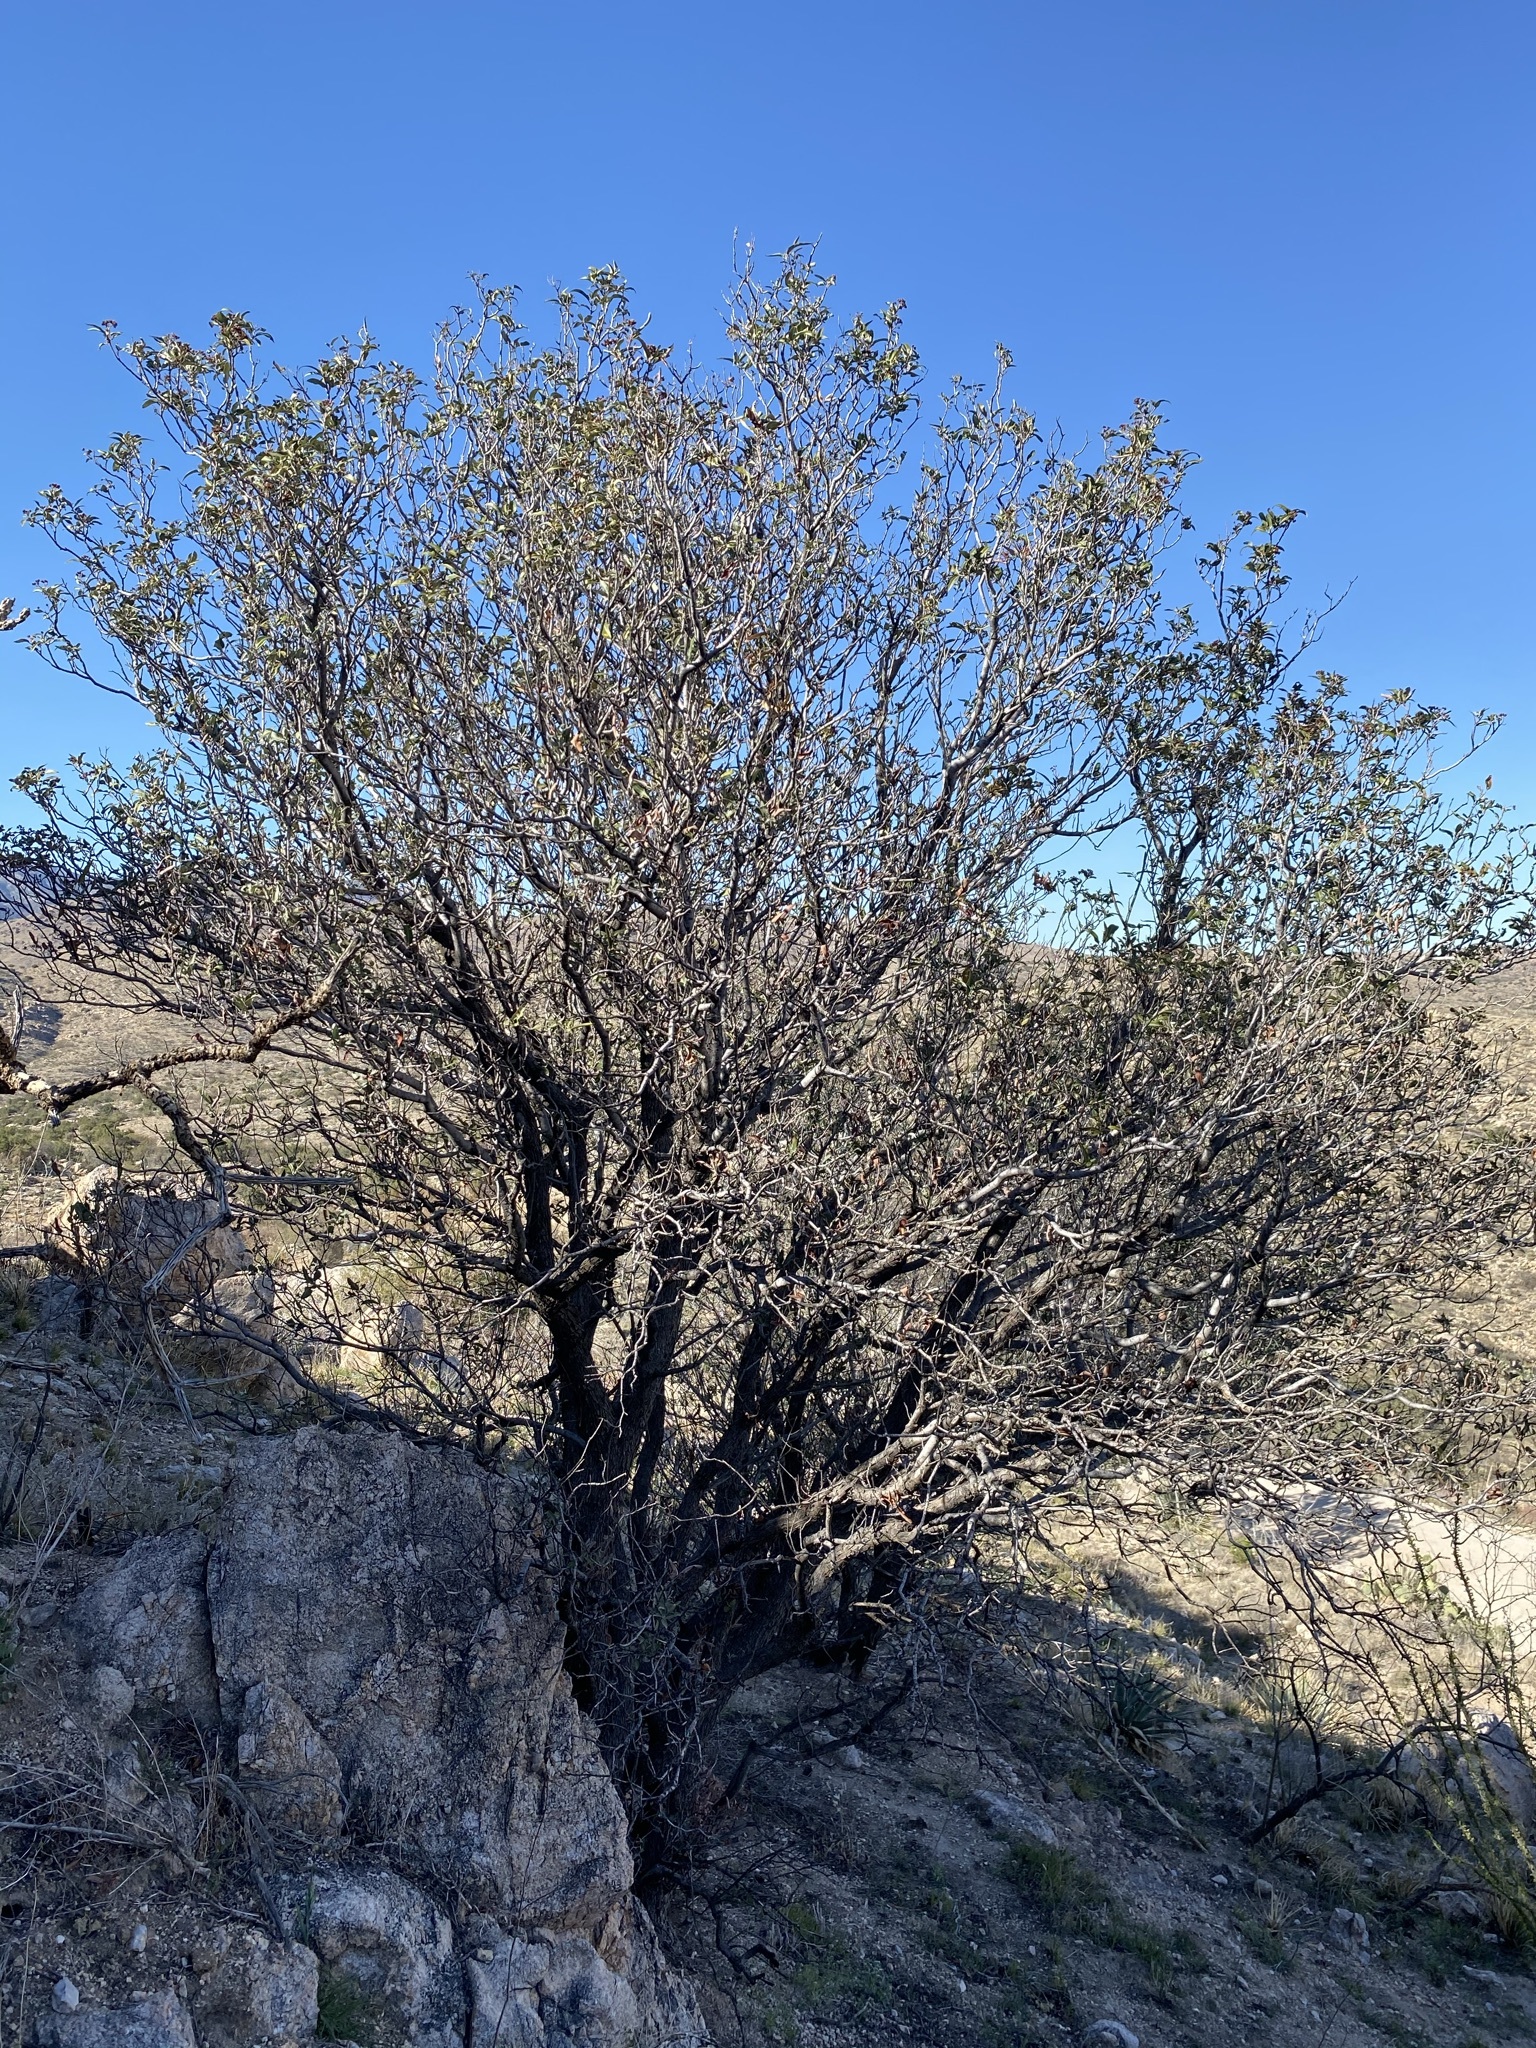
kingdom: Plantae
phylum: Tracheophyta
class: Magnoliopsida
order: Rosales
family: Rosaceae
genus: Vauquelinia
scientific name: Vauquelinia californica
